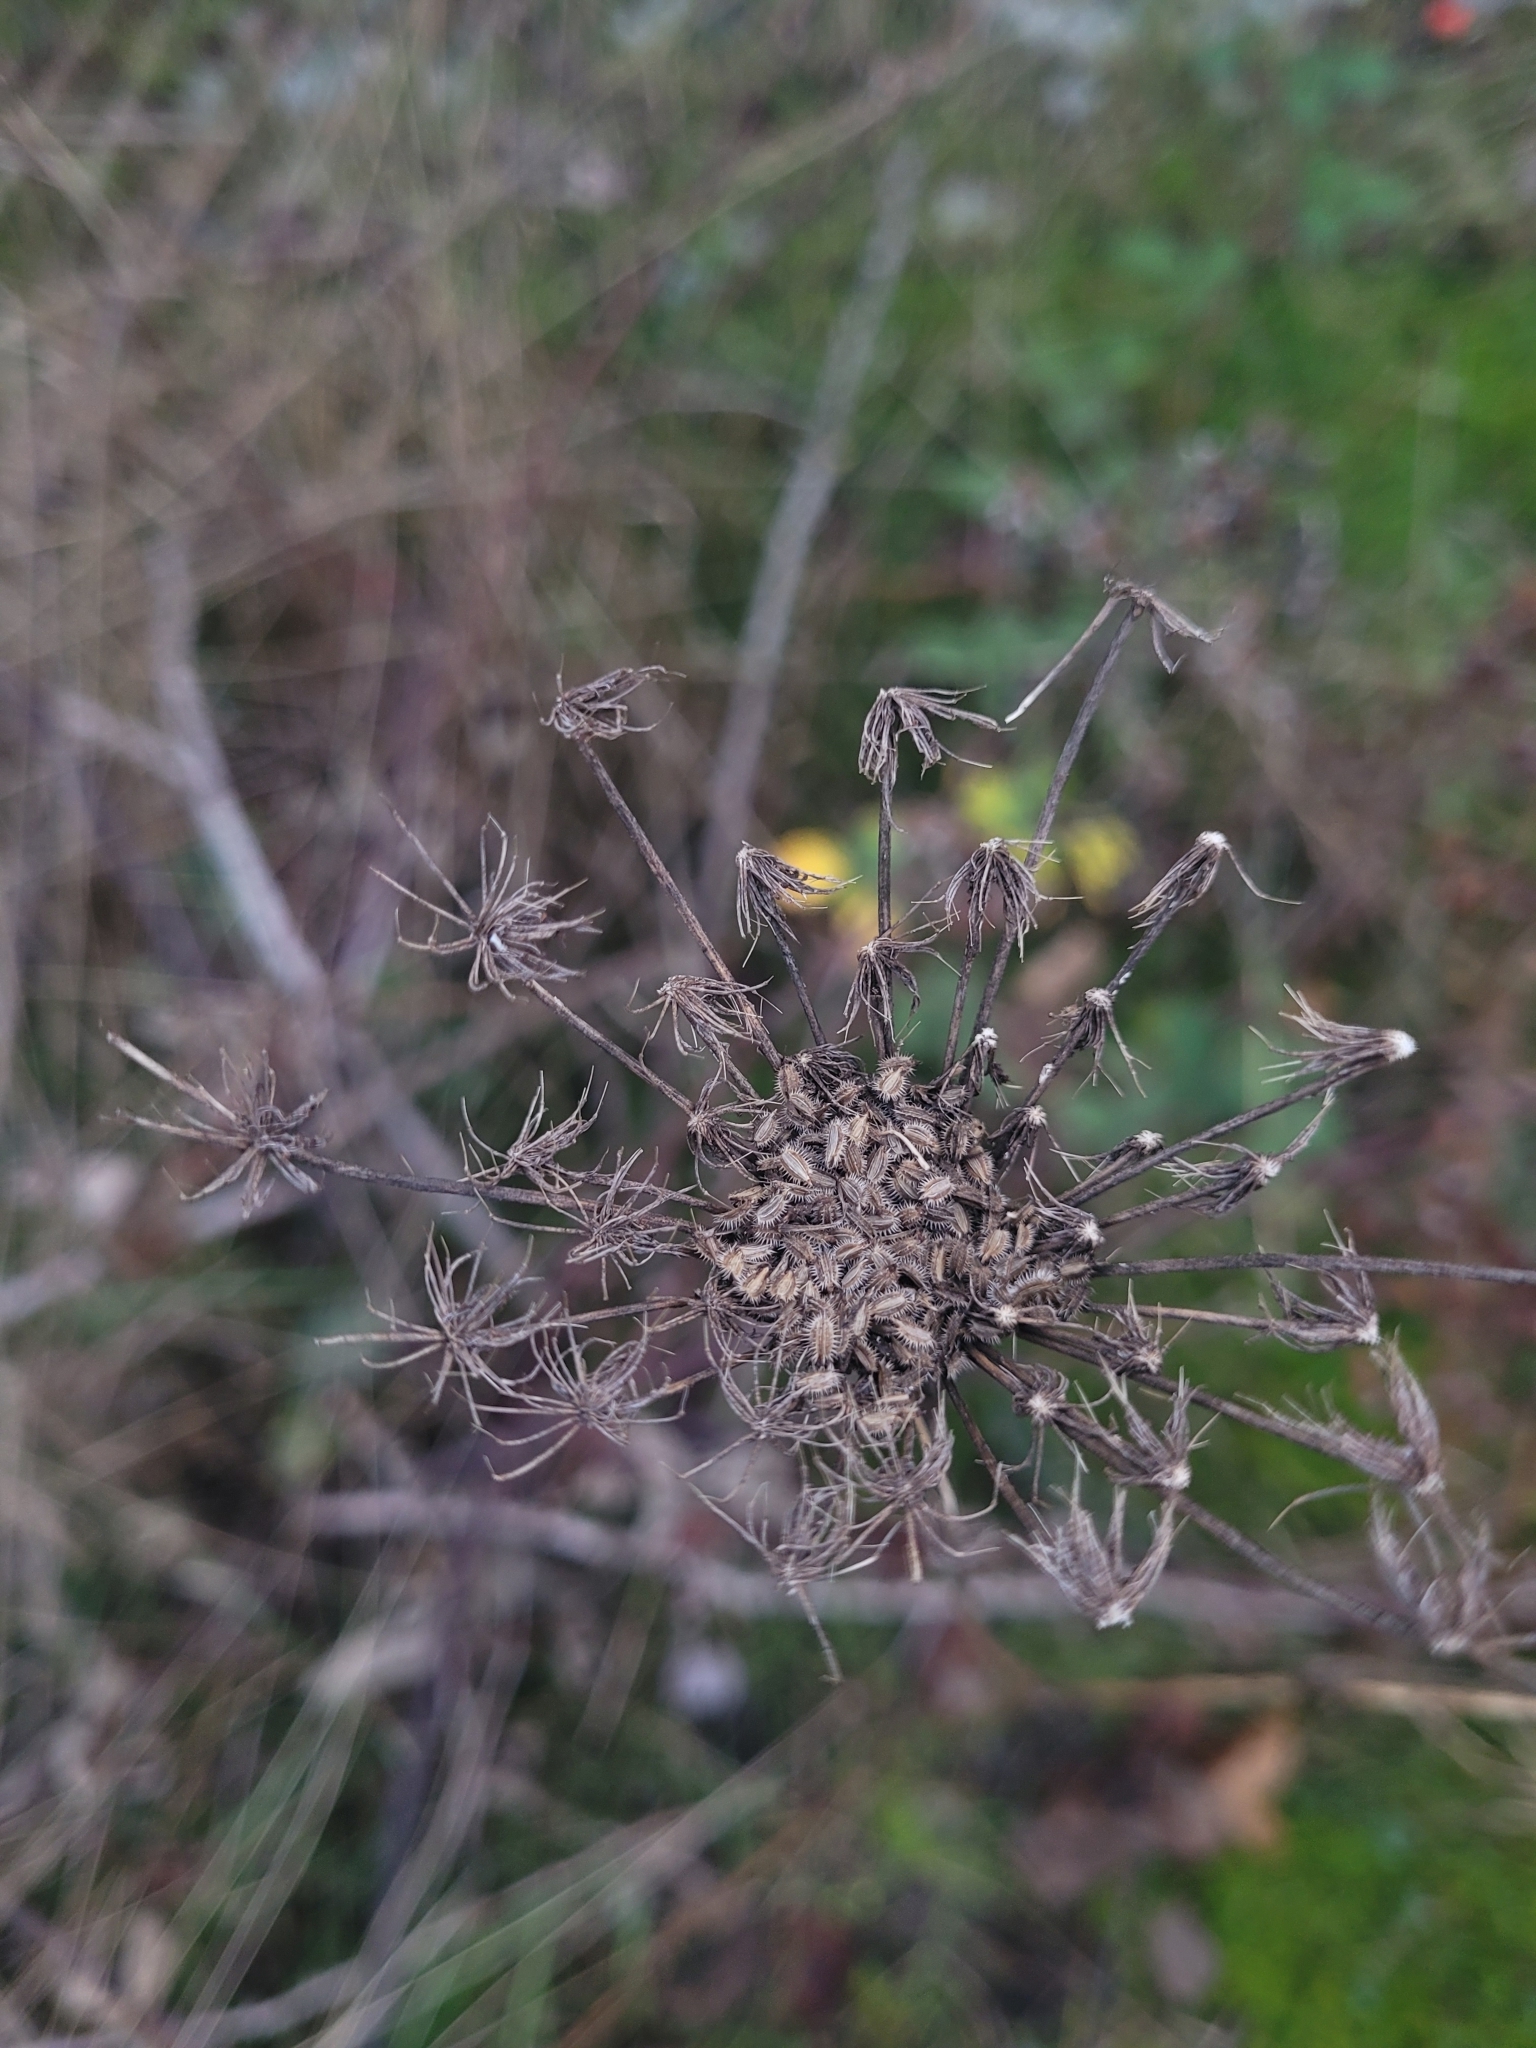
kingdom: Plantae
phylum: Tracheophyta
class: Magnoliopsida
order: Apiales
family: Apiaceae
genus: Daucus
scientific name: Daucus carota
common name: Wild carrot
